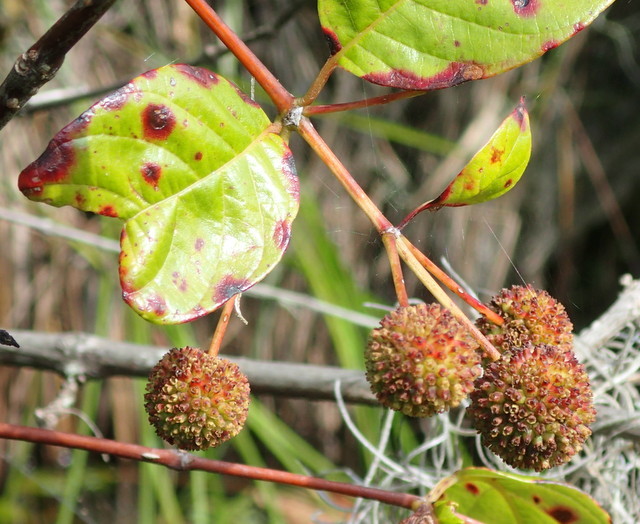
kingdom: Plantae
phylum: Tracheophyta
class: Magnoliopsida
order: Gentianales
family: Rubiaceae
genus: Cephalanthus
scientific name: Cephalanthus occidentalis
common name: Button-willow
